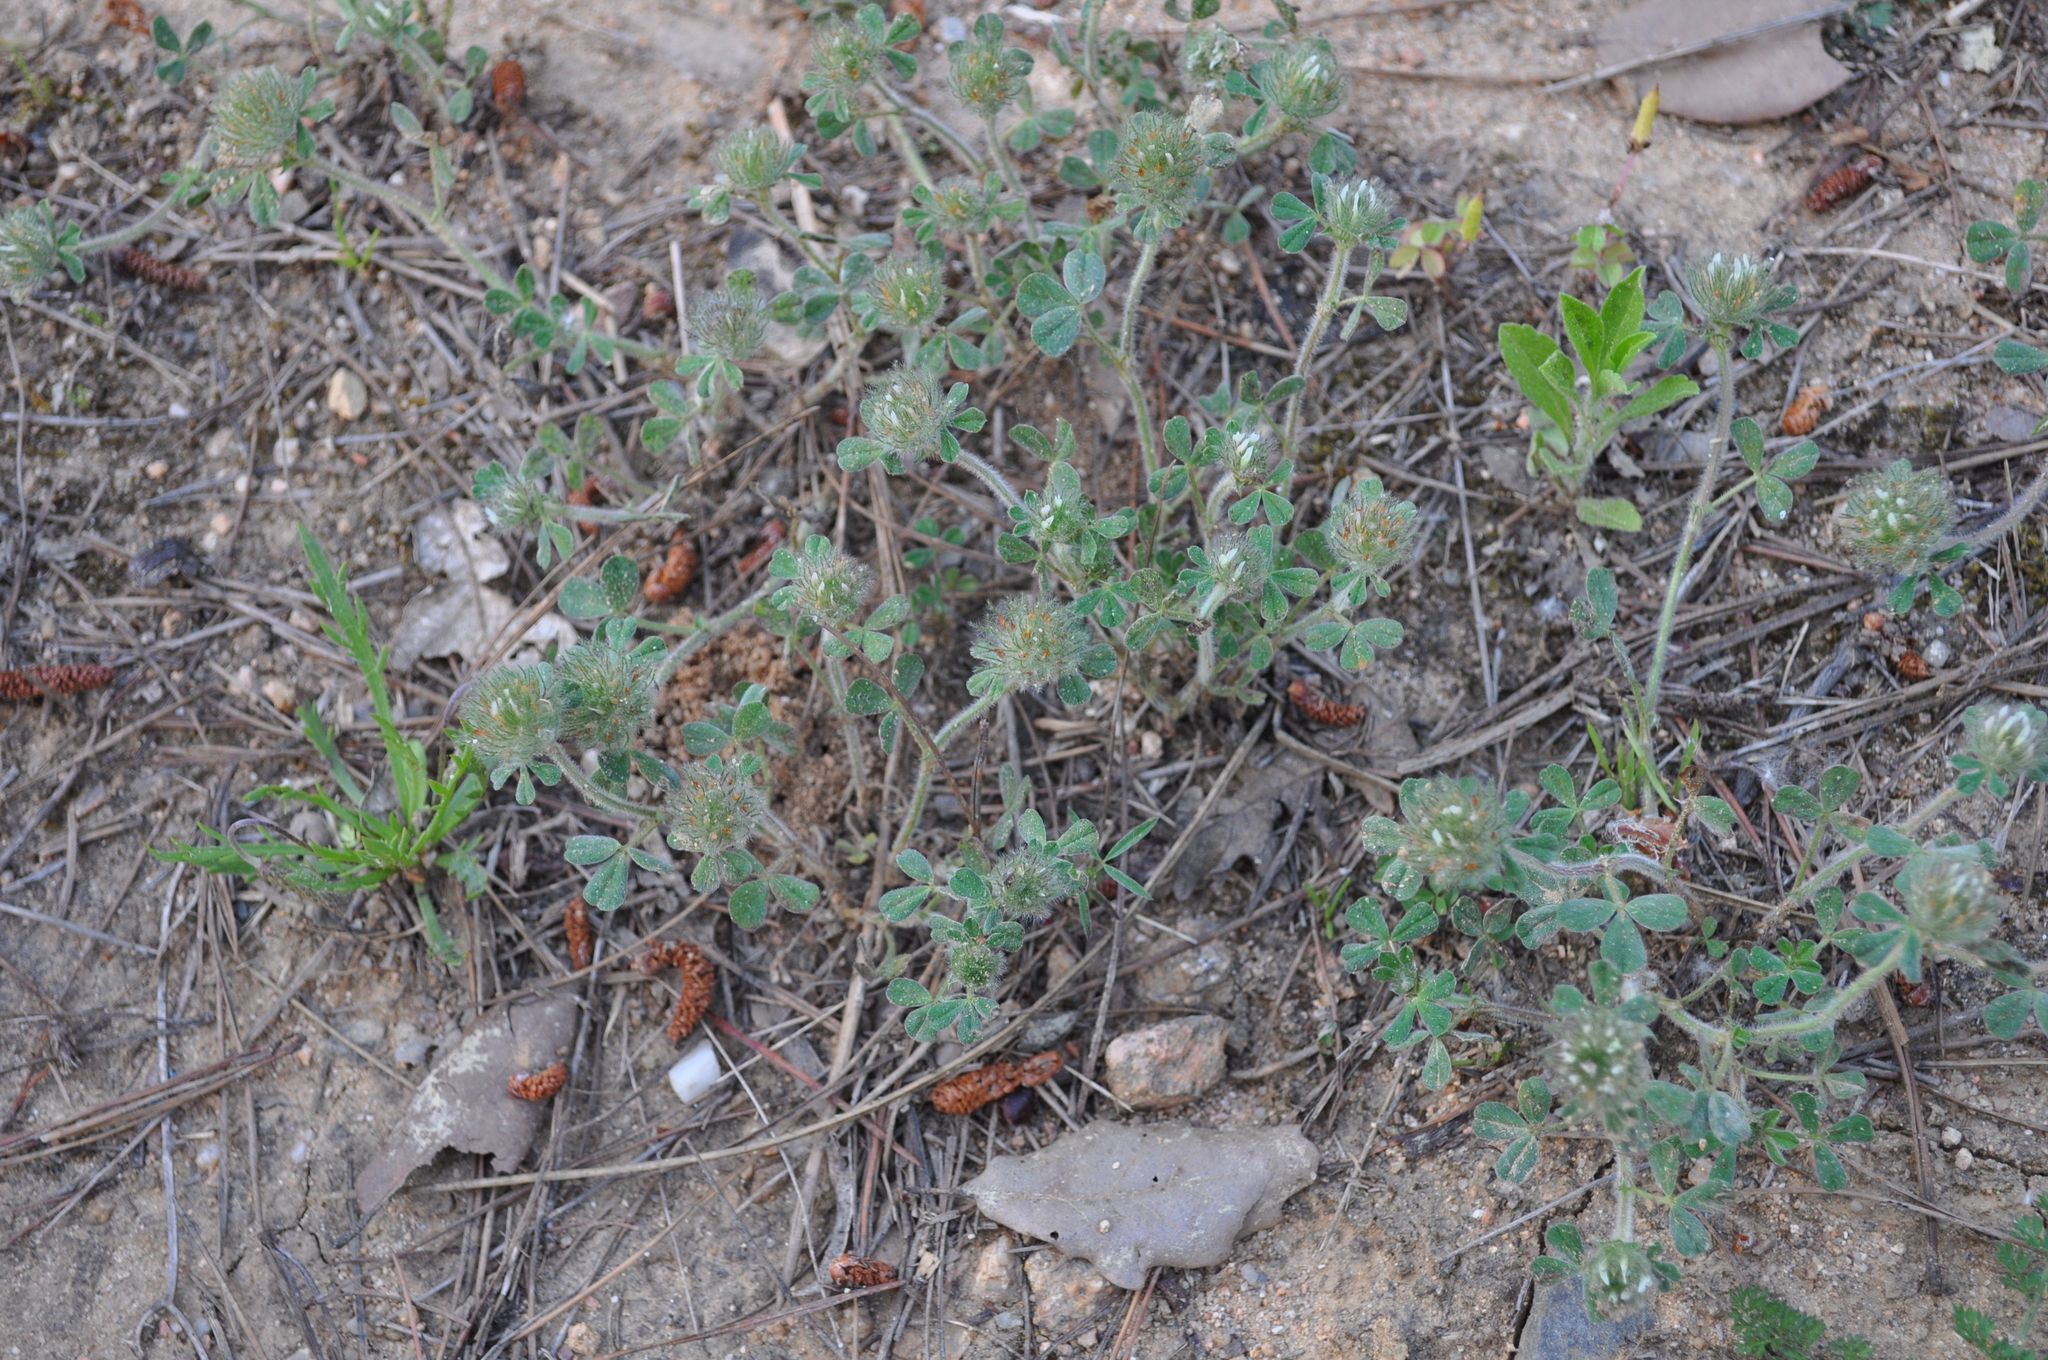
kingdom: Plantae
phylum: Tracheophyta
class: Magnoliopsida
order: Fabales
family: Fabaceae
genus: Trifolium
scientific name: Trifolium cherleri
